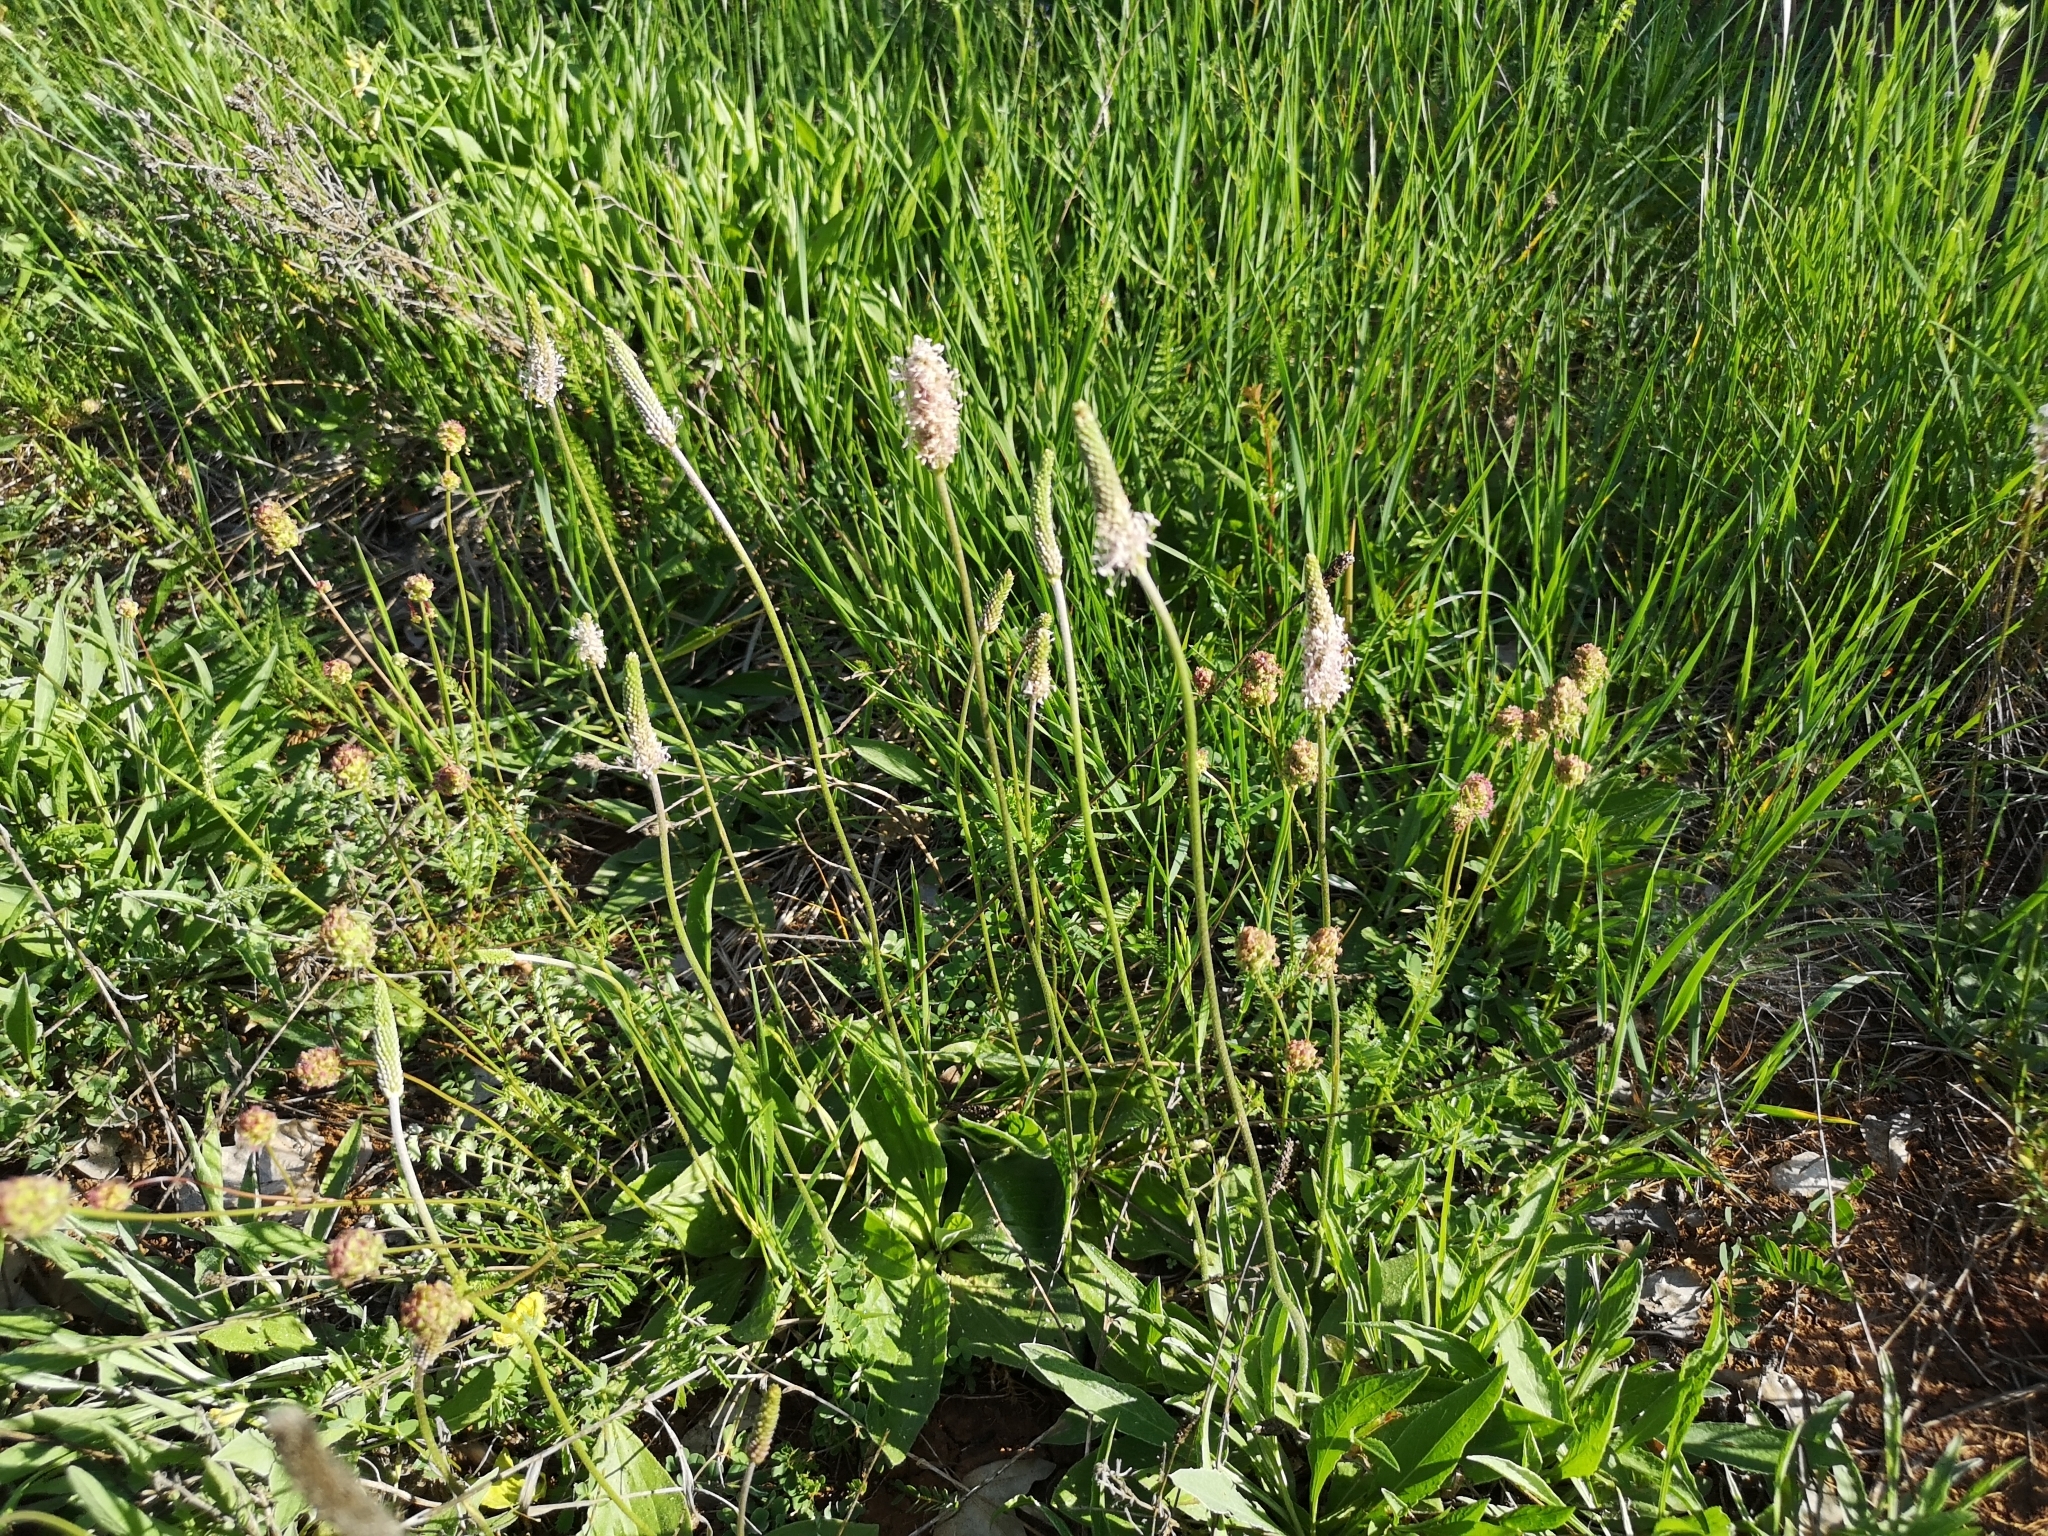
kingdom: Plantae
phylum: Tracheophyta
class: Magnoliopsida
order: Lamiales
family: Plantaginaceae
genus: Plantago
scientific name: Plantago media
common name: Hoary plantain
